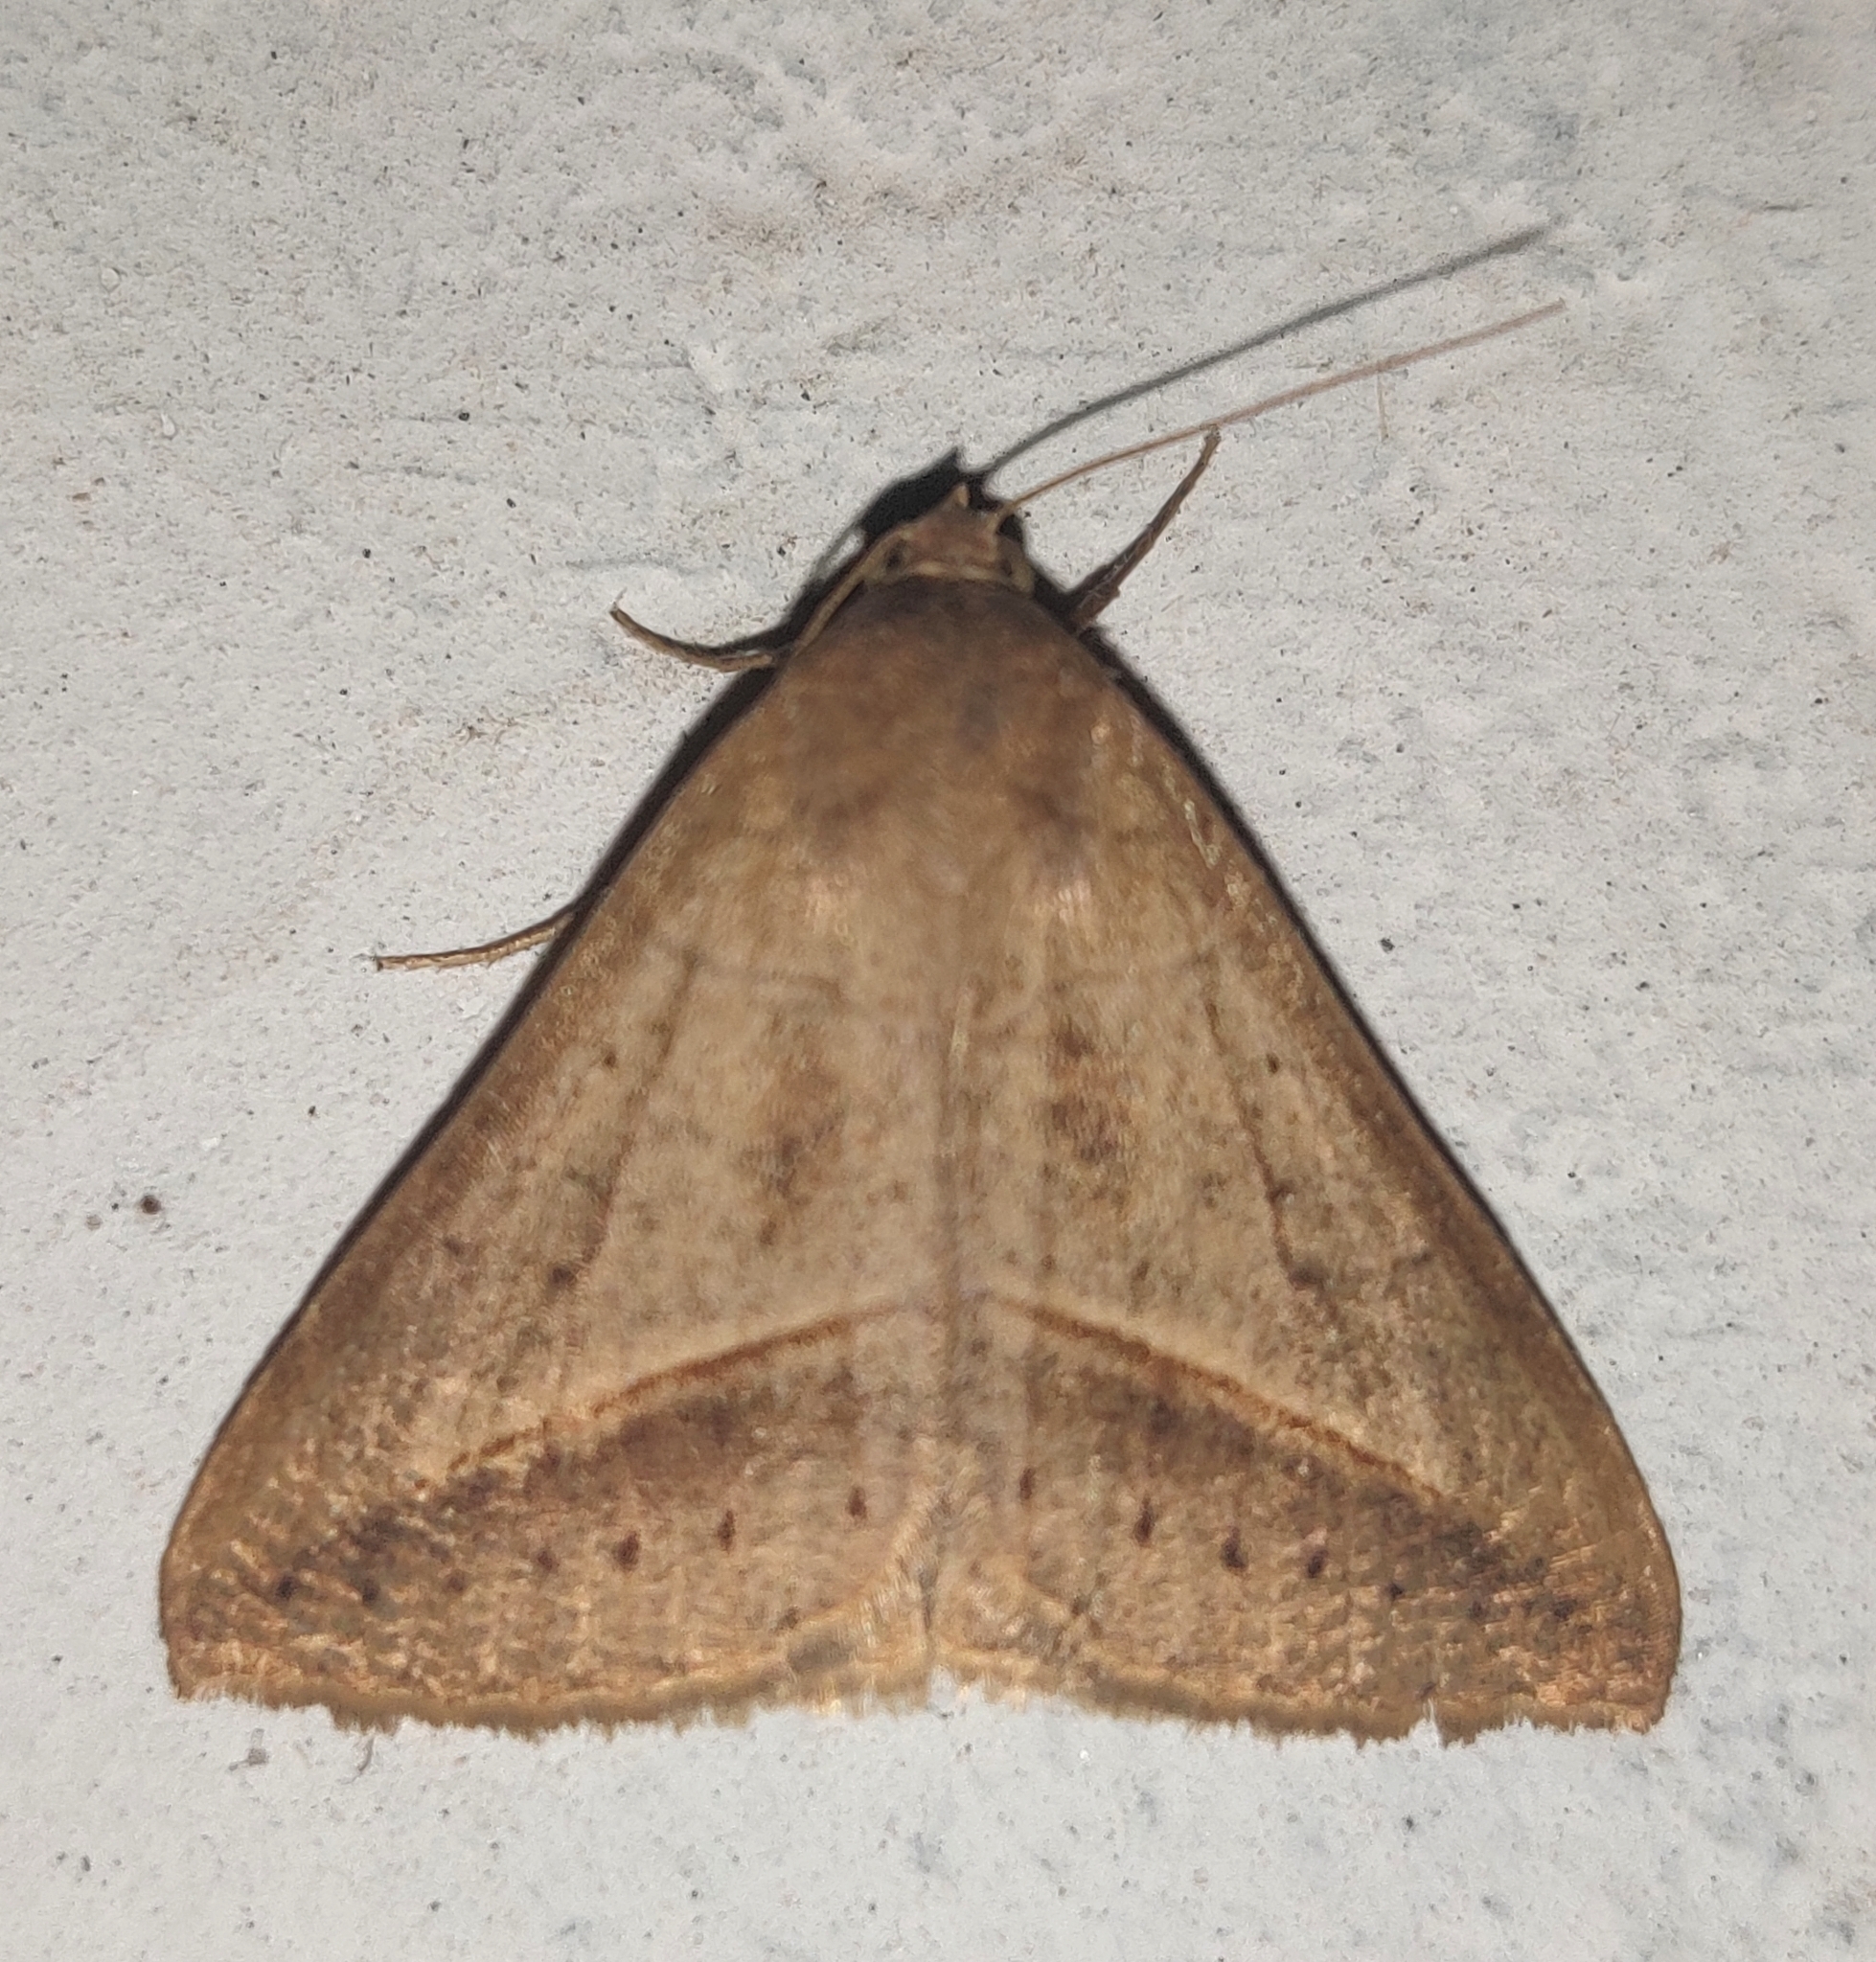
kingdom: Animalia
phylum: Arthropoda
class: Insecta
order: Lepidoptera
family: Erebidae
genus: Mocis
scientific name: Mocis frugalis
